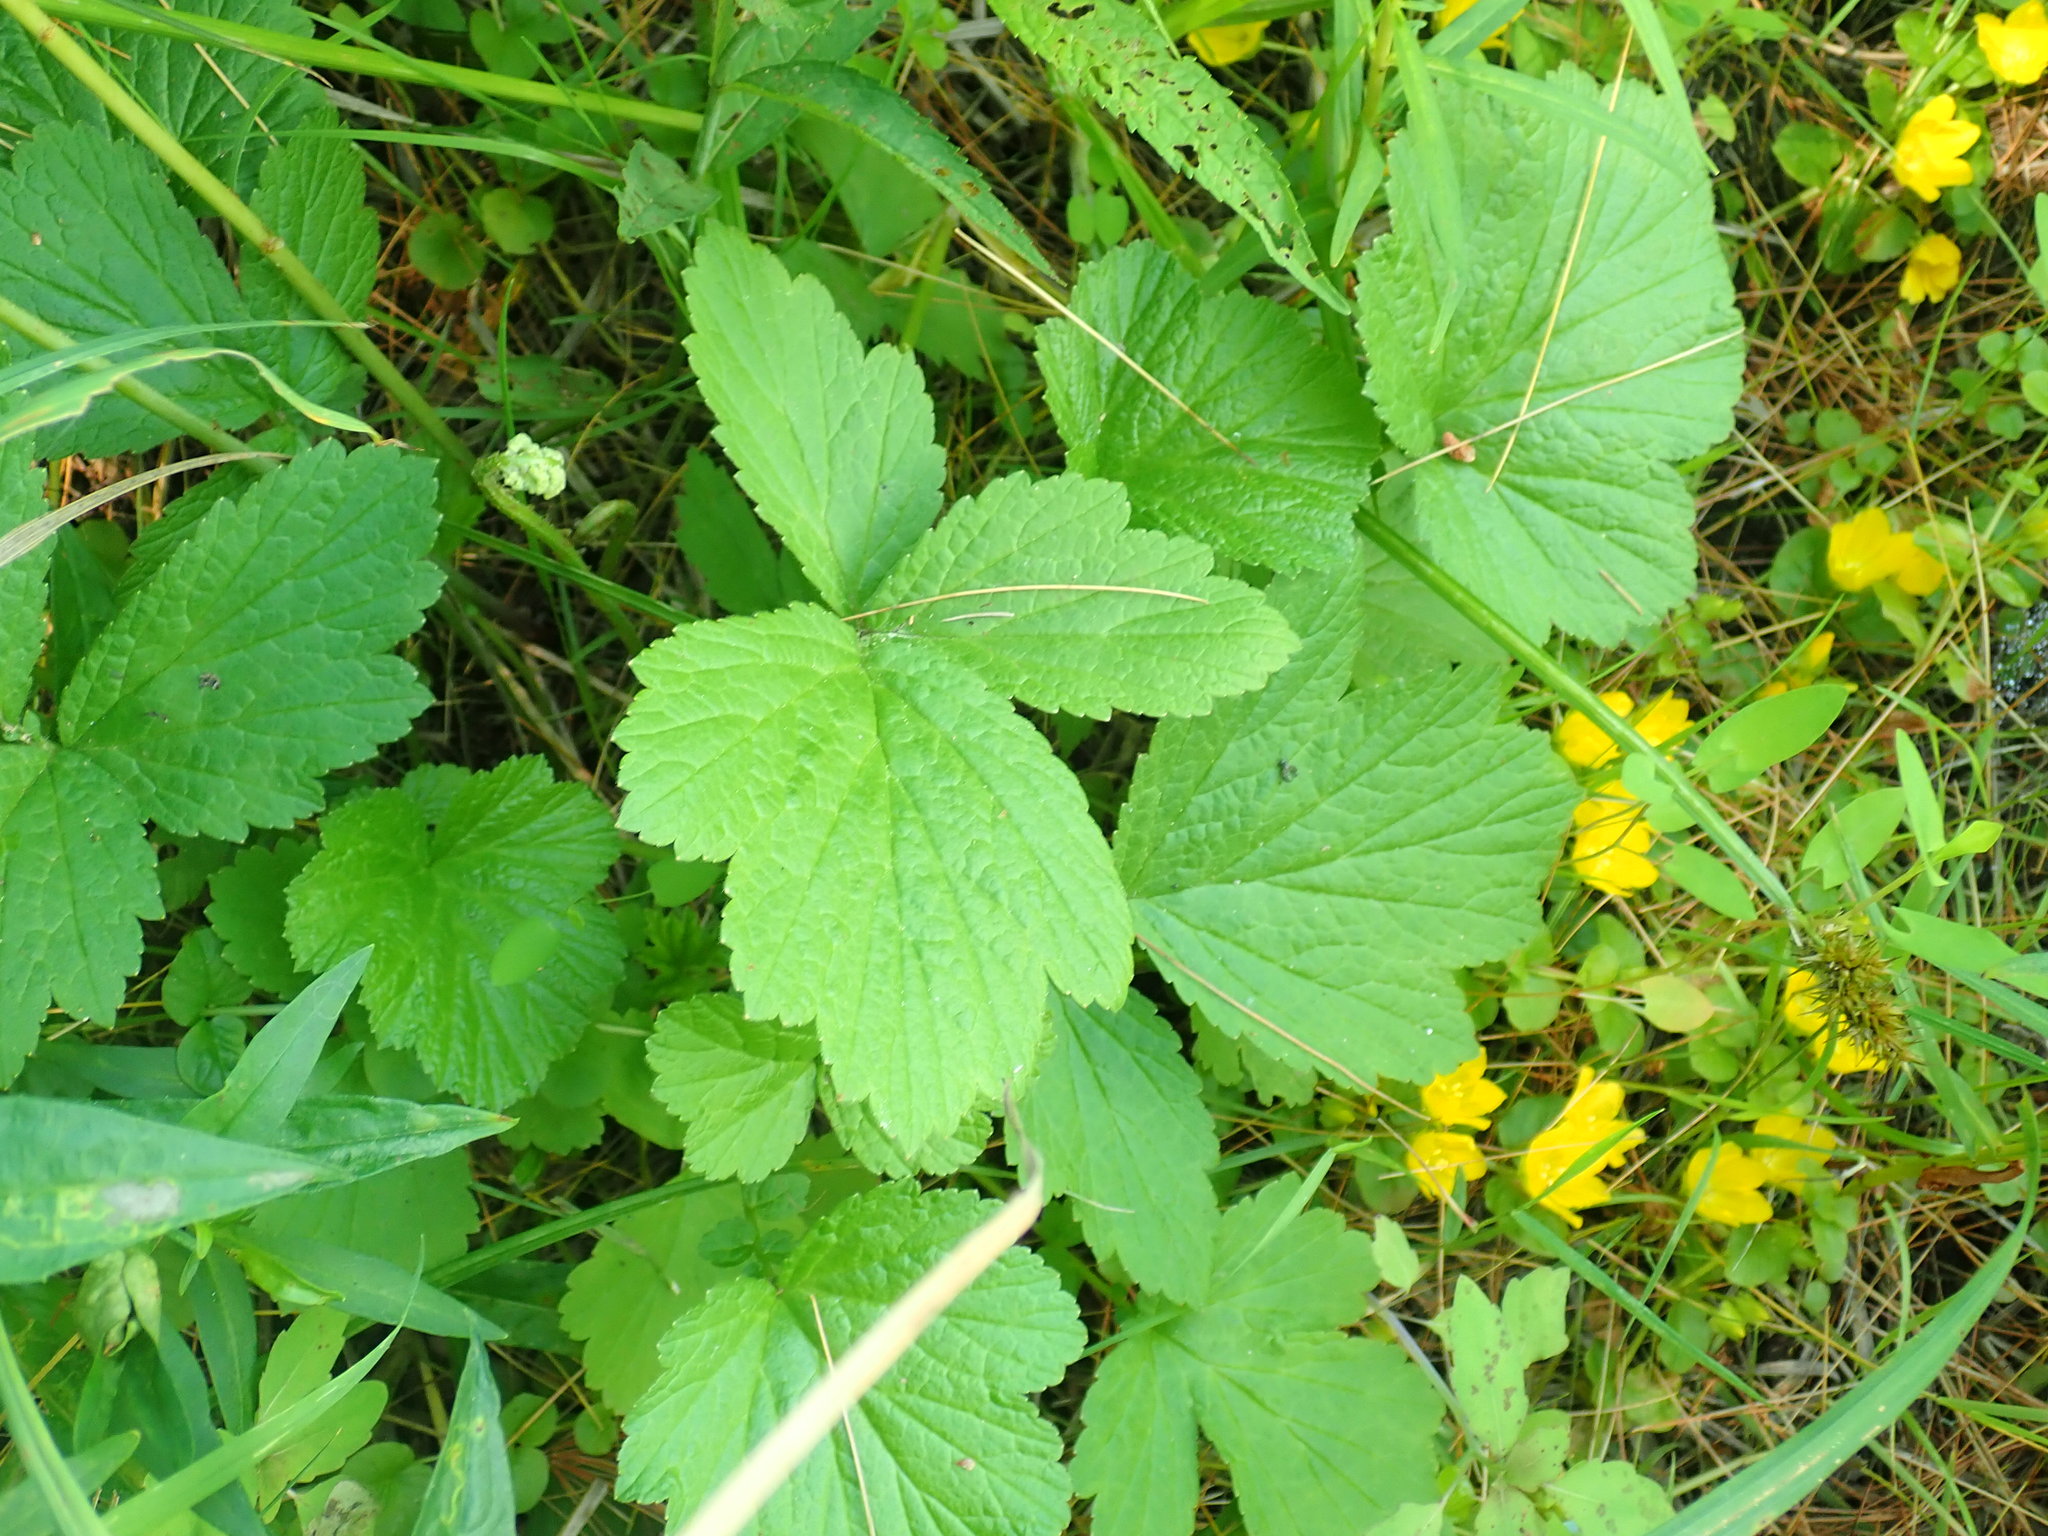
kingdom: Plantae
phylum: Tracheophyta
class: Magnoliopsida
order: Rosales
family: Rosaceae
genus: Geum
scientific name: Geum rivale
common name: Water avens
